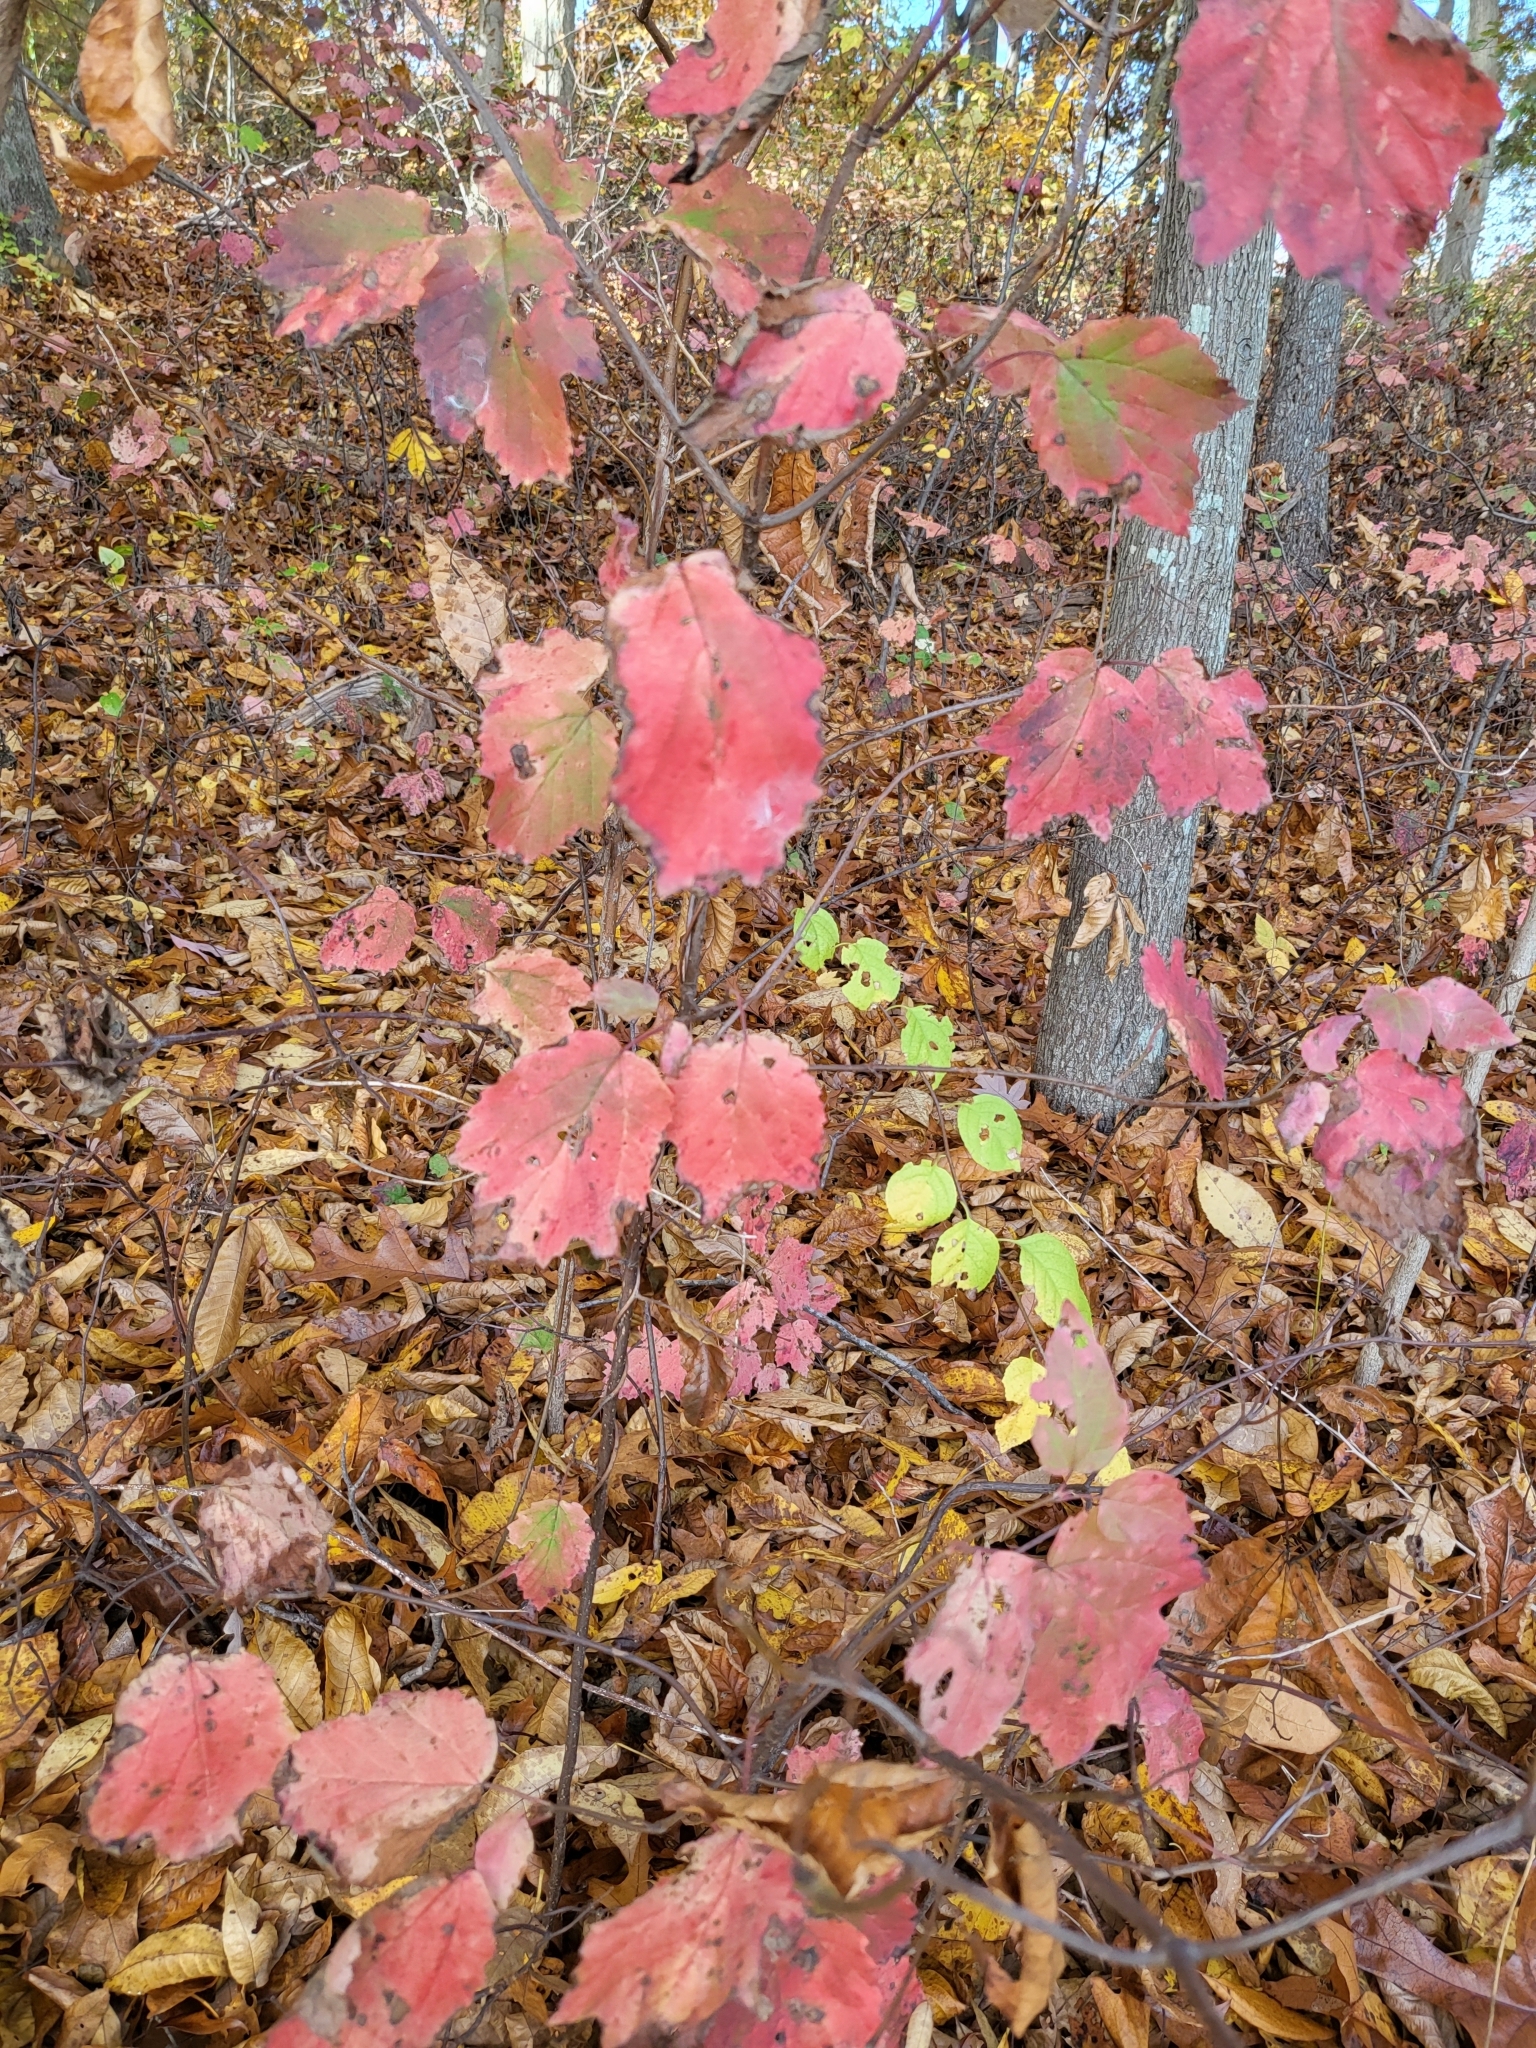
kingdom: Plantae
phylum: Tracheophyta
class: Magnoliopsida
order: Dipsacales
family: Viburnaceae
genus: Viburnum
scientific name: Viburnum acerifolium
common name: Dockmackie
